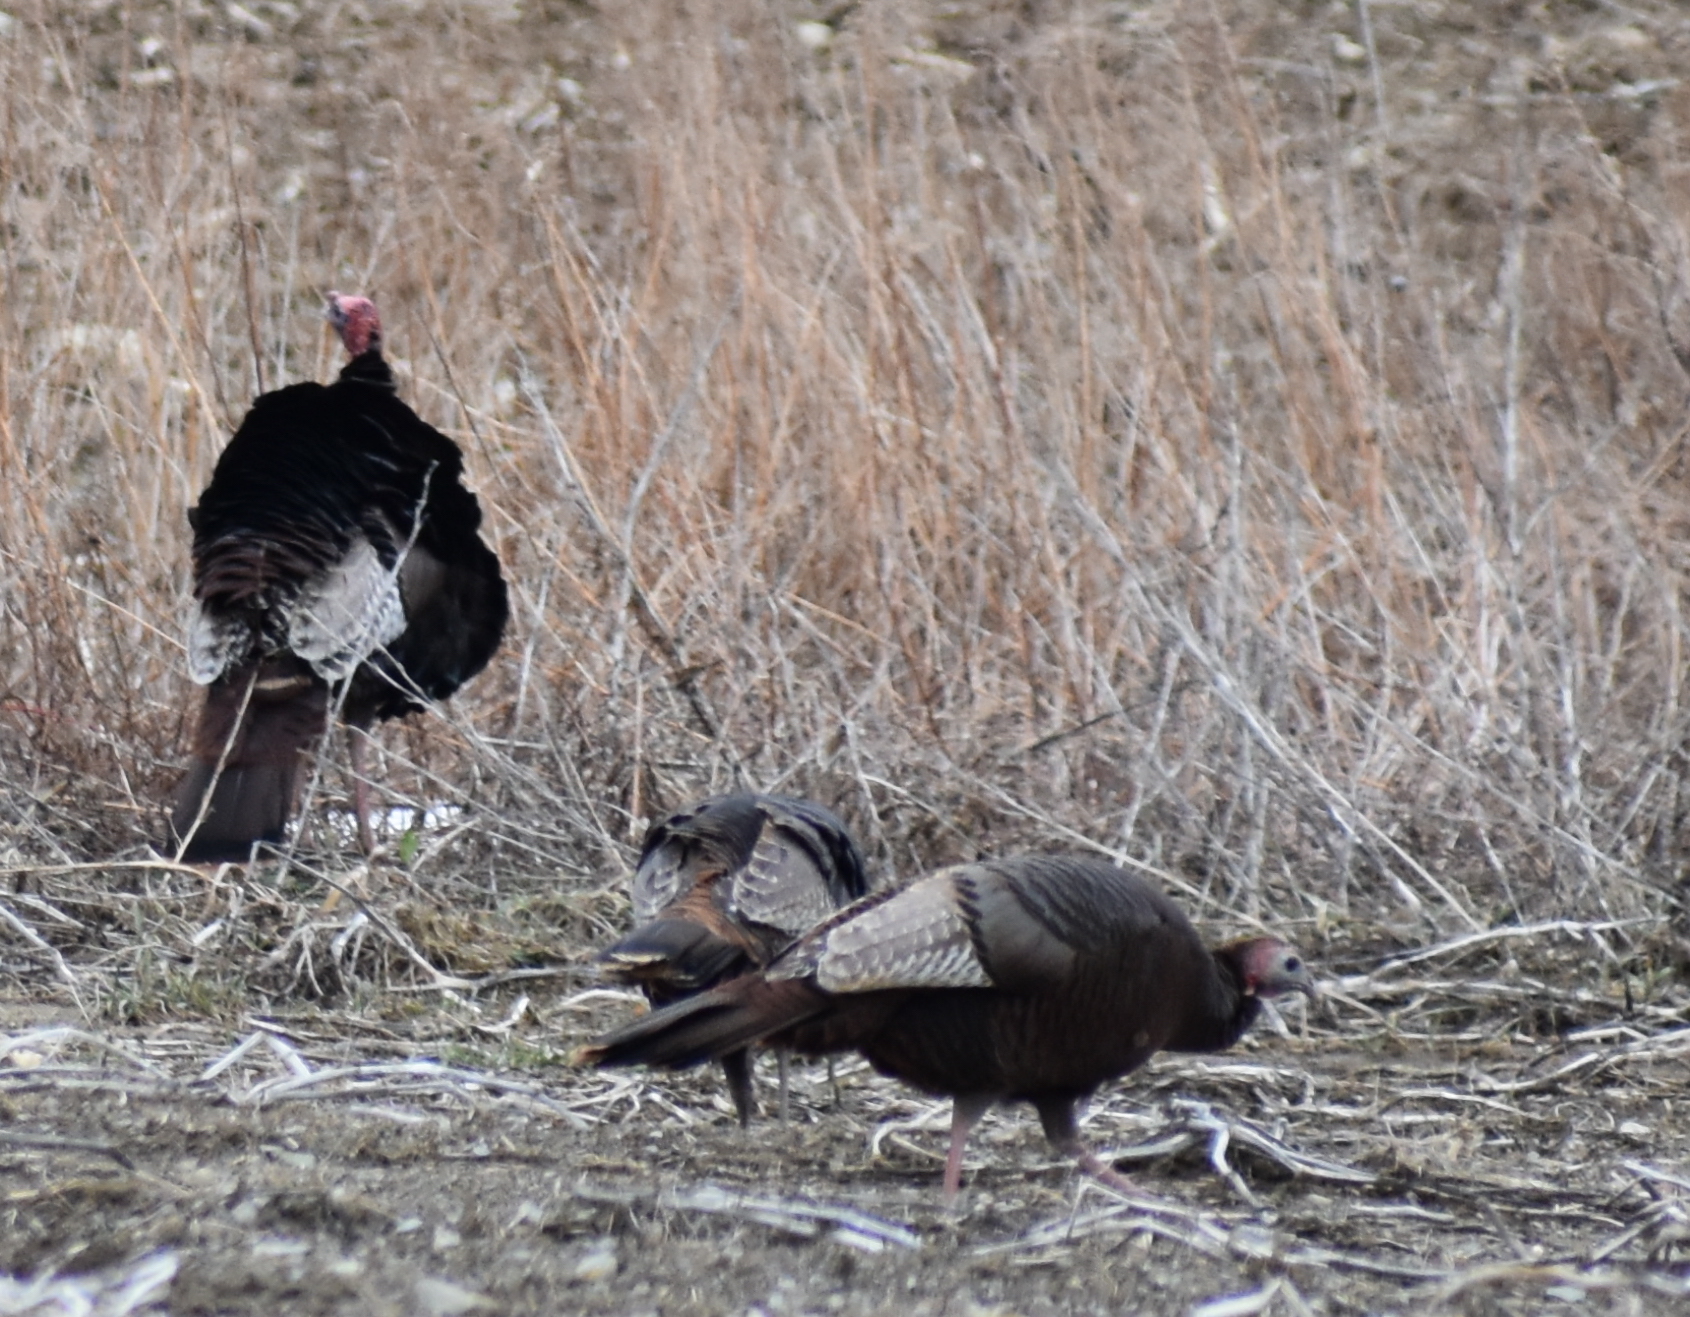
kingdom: Animalia
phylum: Chordata
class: Aves
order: Galliformes
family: Phasianidae
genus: Meleagris
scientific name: Meleagris gallopavo
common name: Wild turkey
